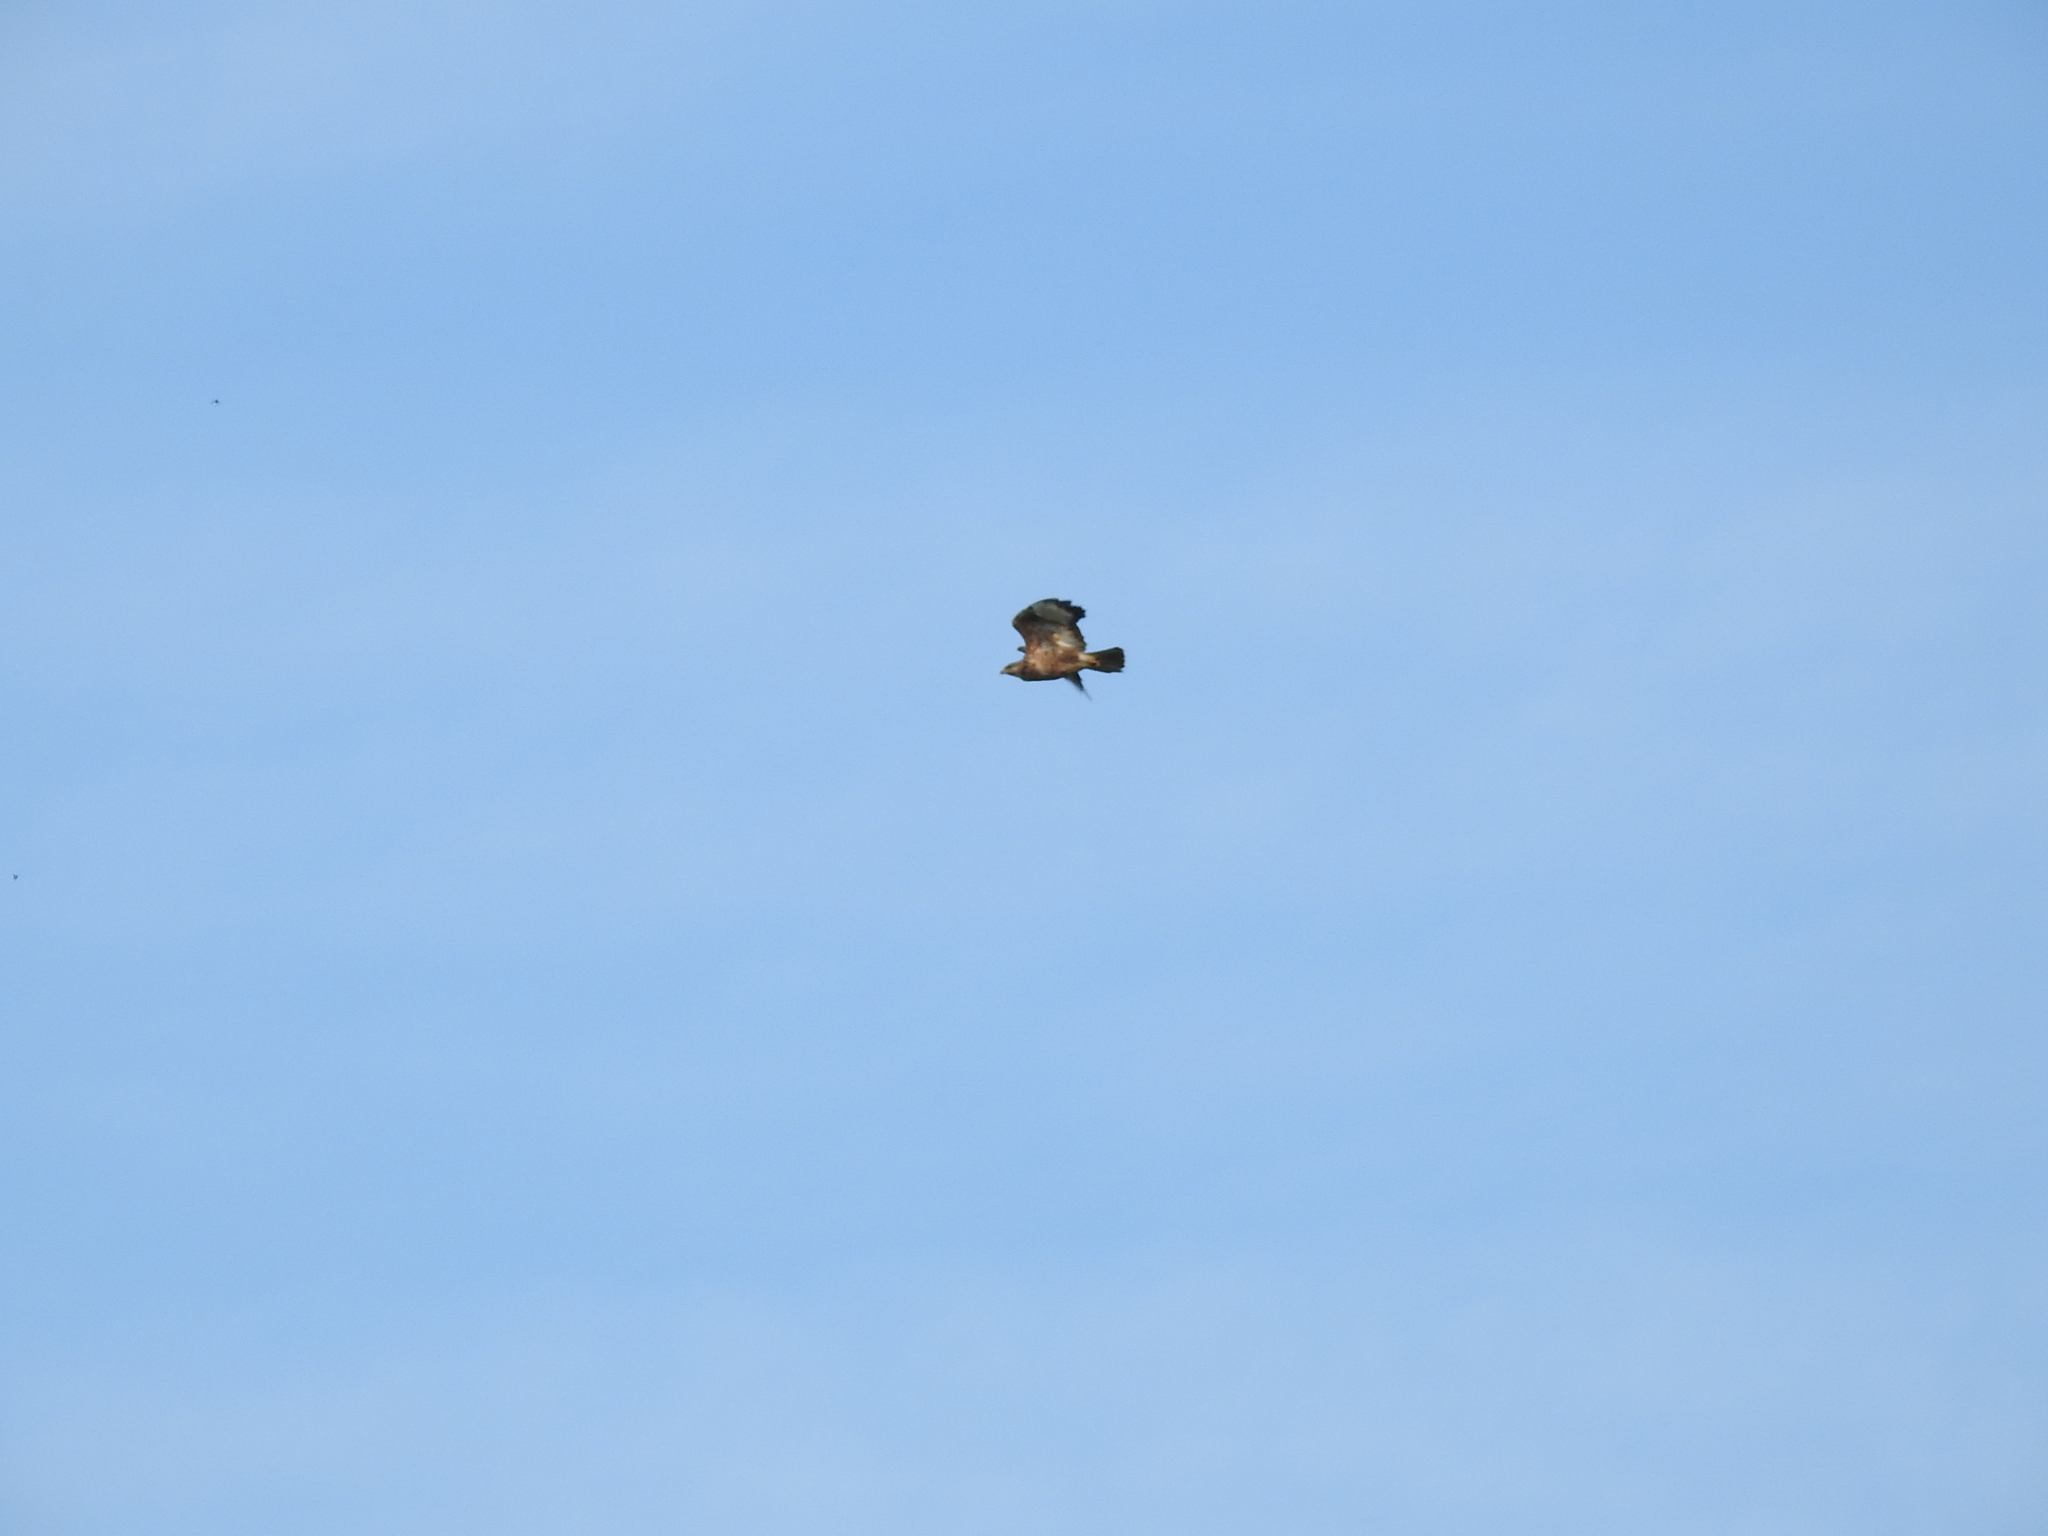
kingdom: Animalia
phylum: Chordata
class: Aves
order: Accipitriformes
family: Accipitridae
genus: Buteo
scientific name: Buteo buteo
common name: Common buzzard
